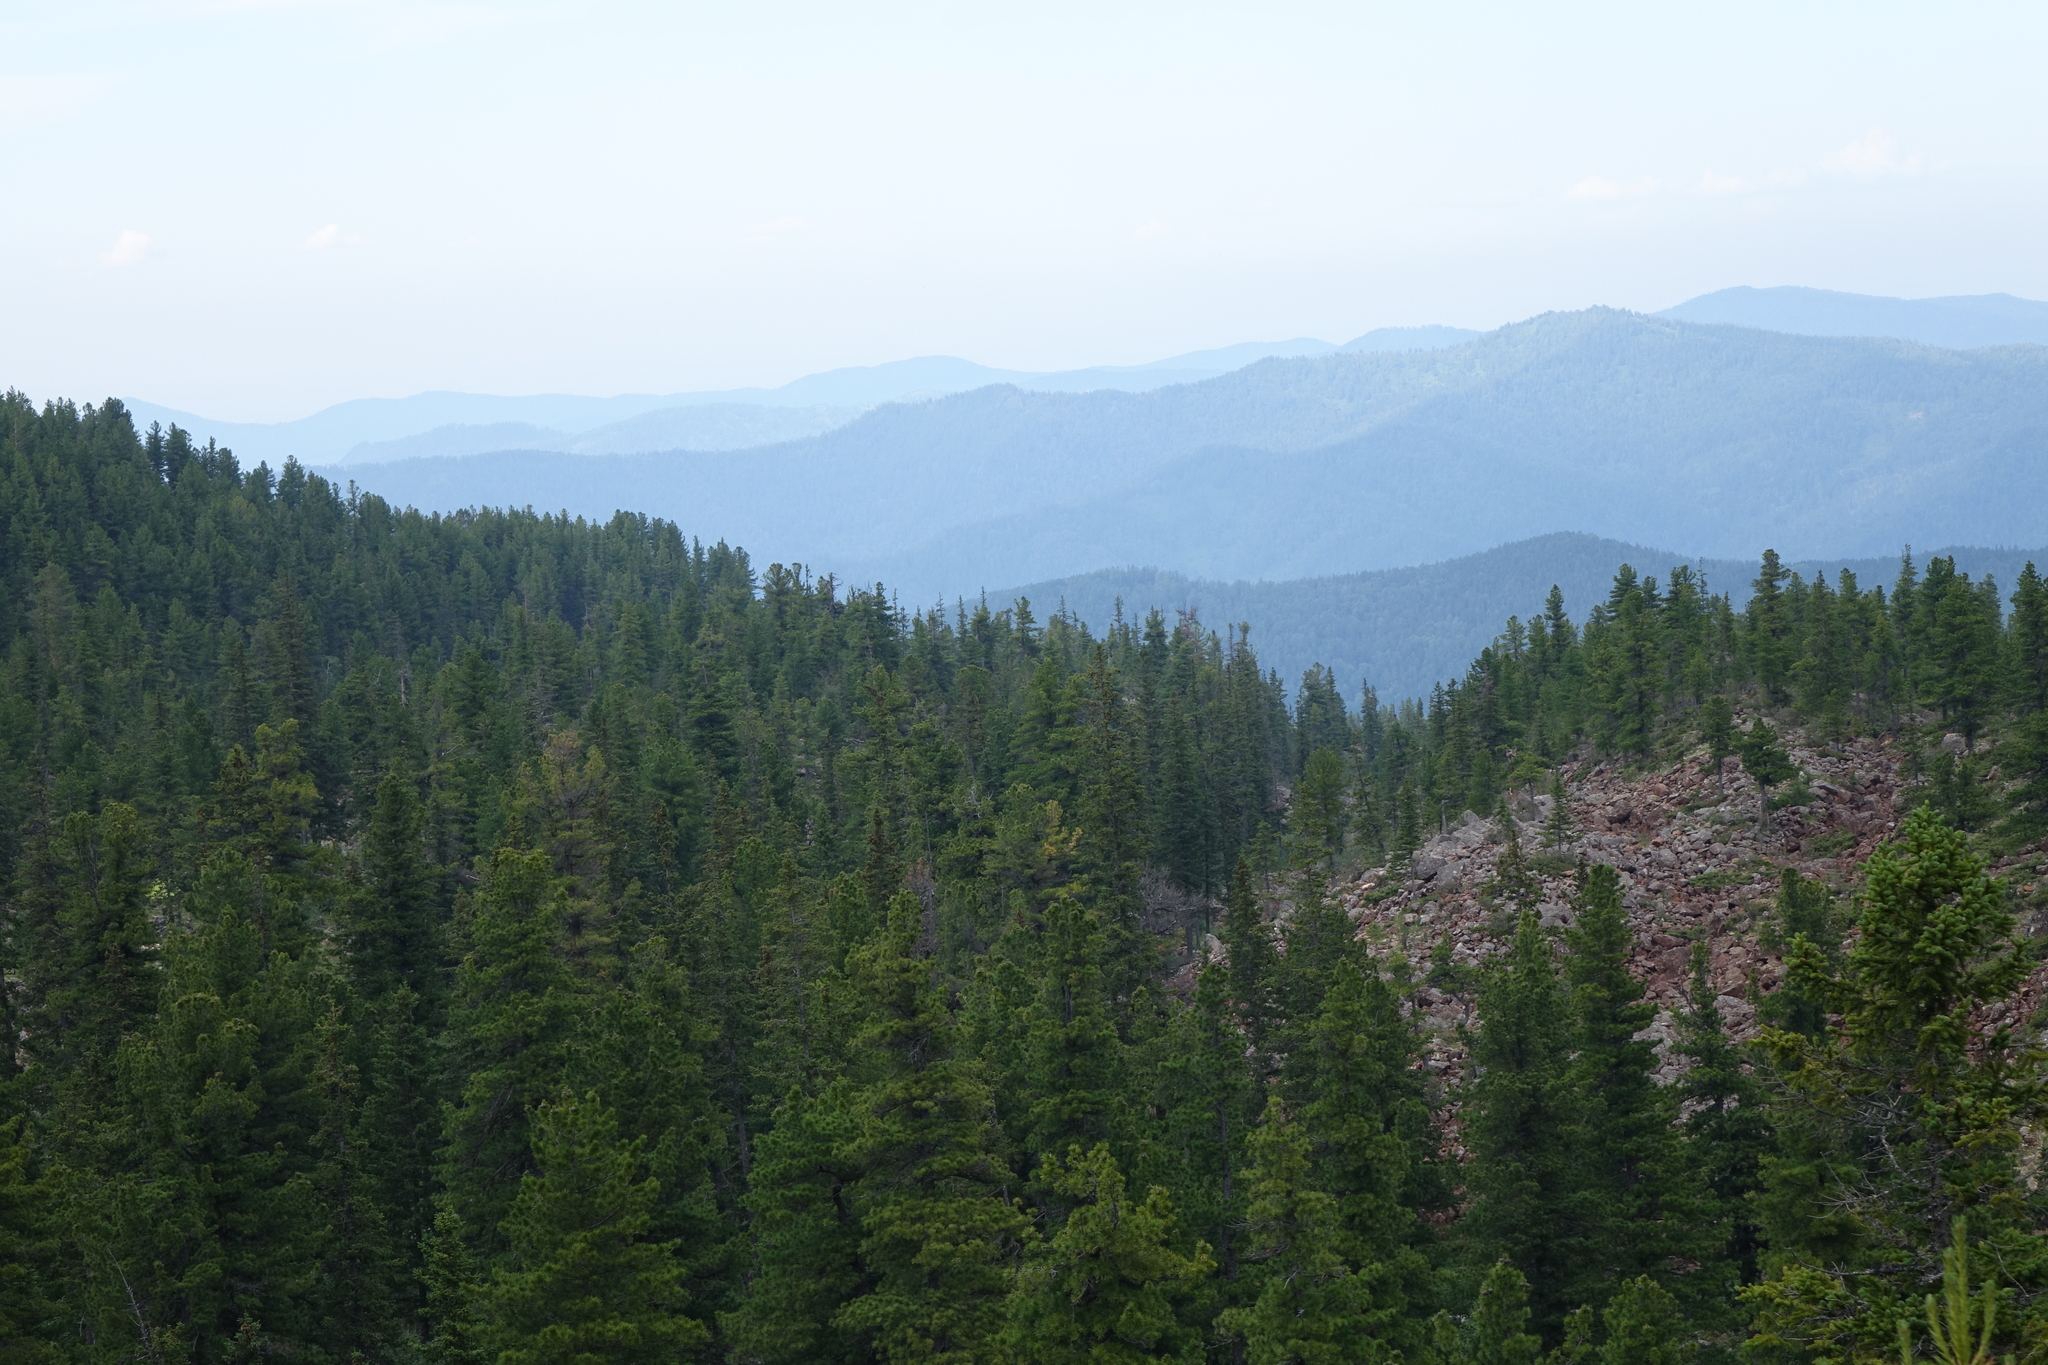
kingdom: Plantae
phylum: Tracheophyta
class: Pinopsida
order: Pinales
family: Pinaceae
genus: Pinus
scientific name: Pinus sibirica
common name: Siberian pine
